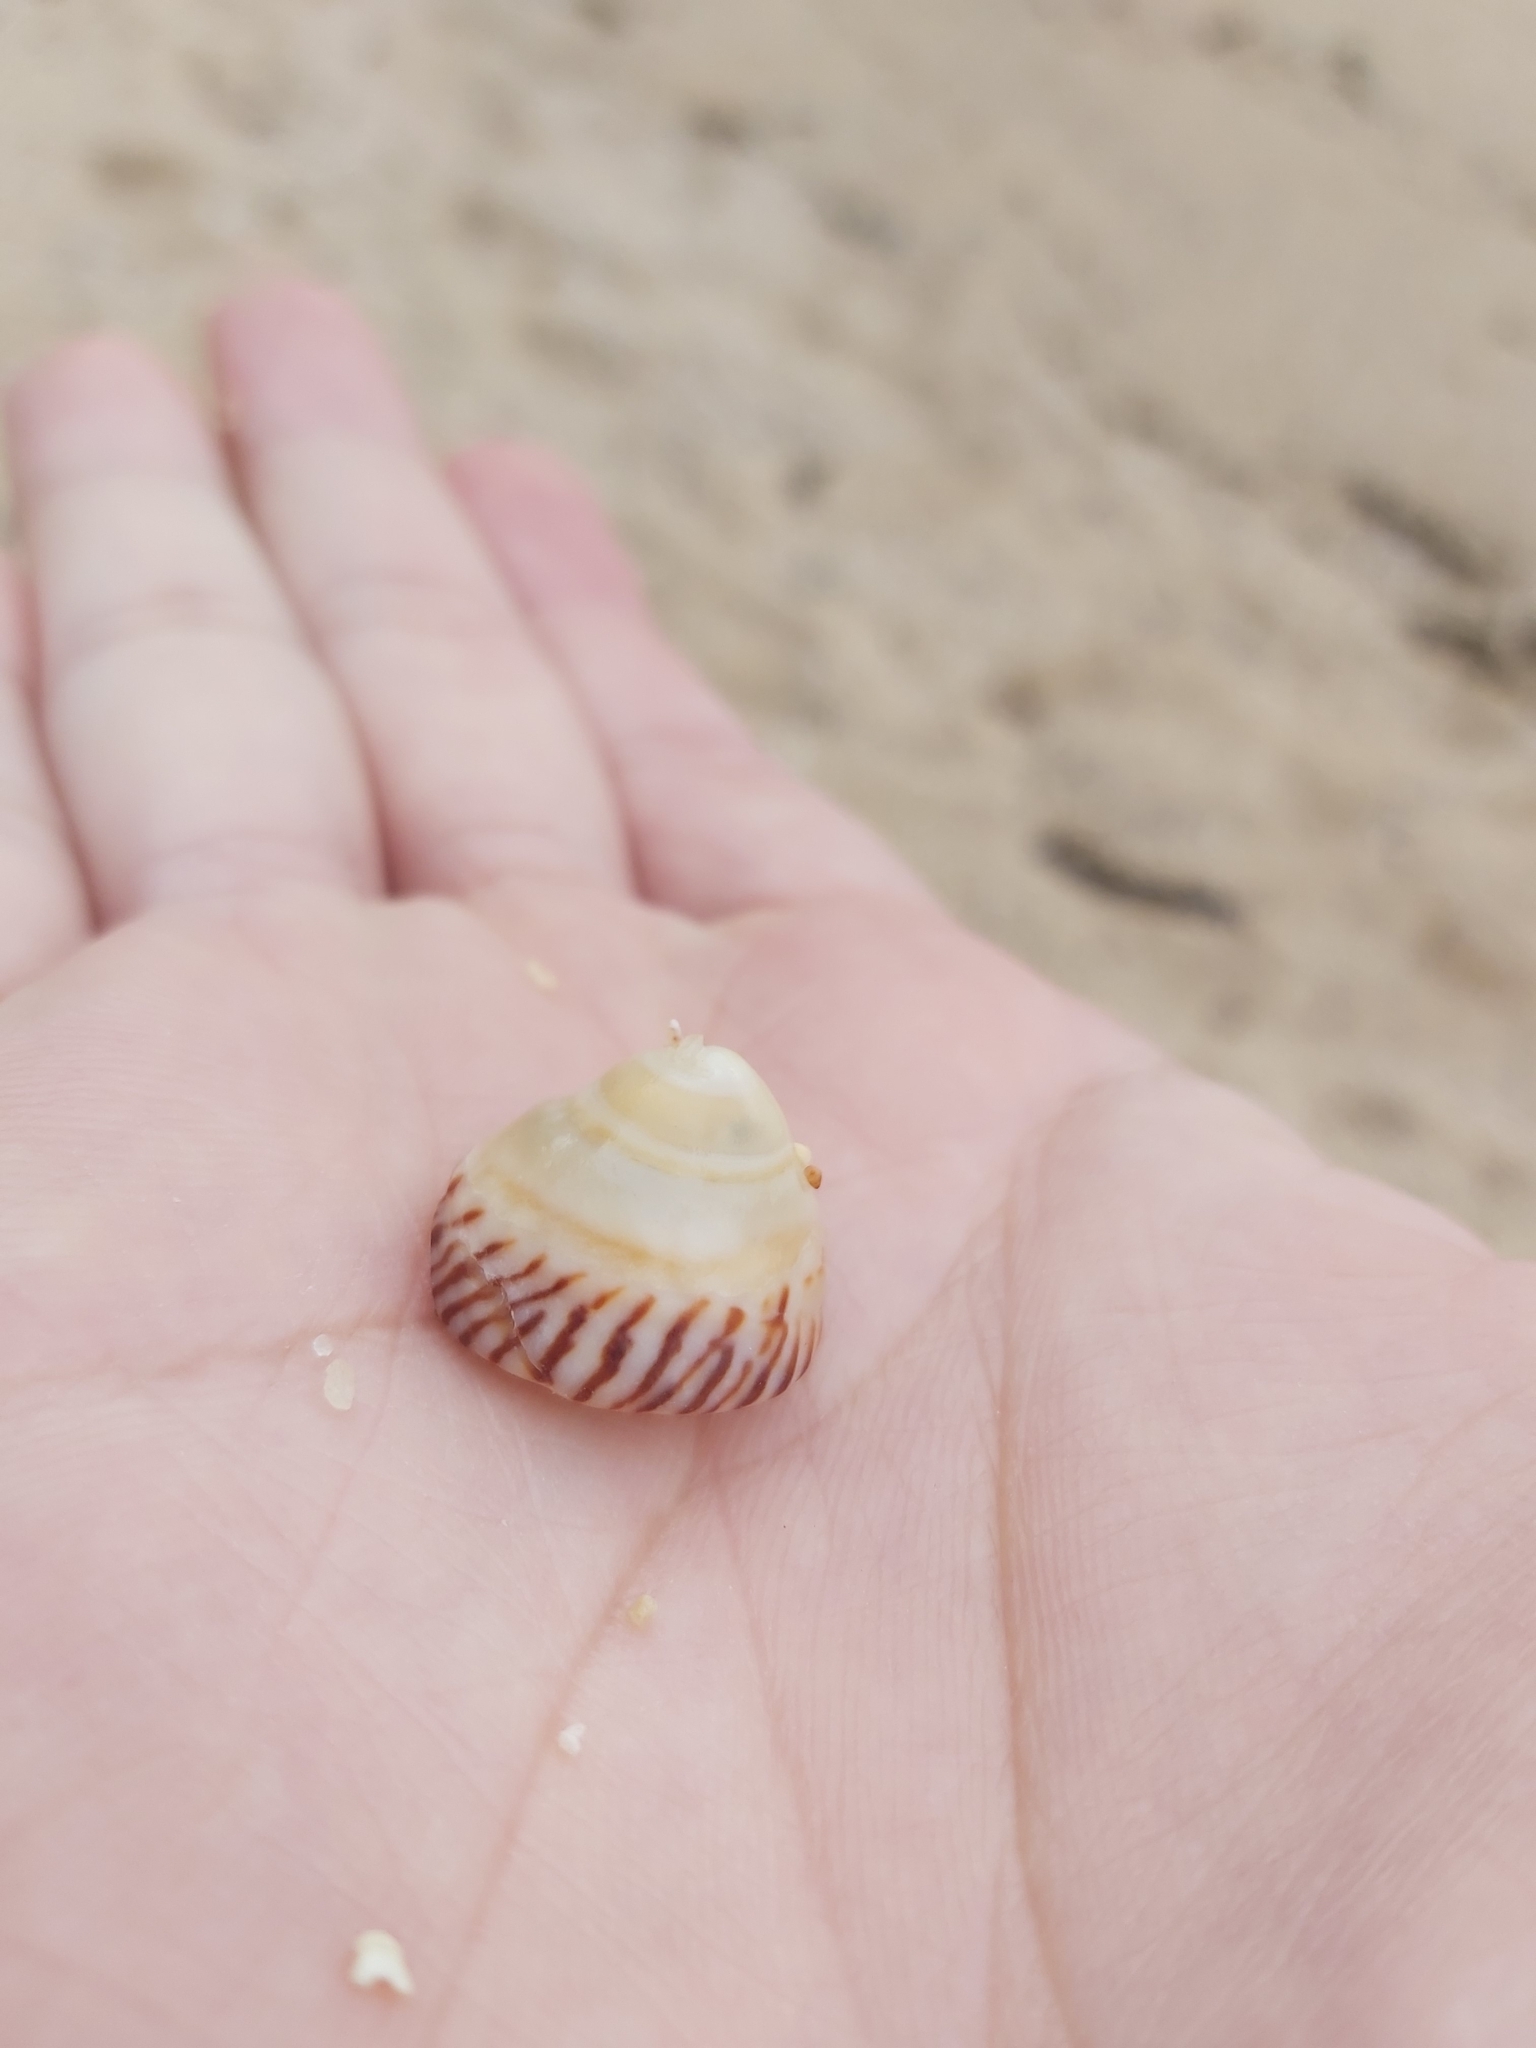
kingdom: Animalia
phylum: Mollusca
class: Gastropoda
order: Littorinimorpha
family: Littorinidae
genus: Bembicium
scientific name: Bembicium nanum
